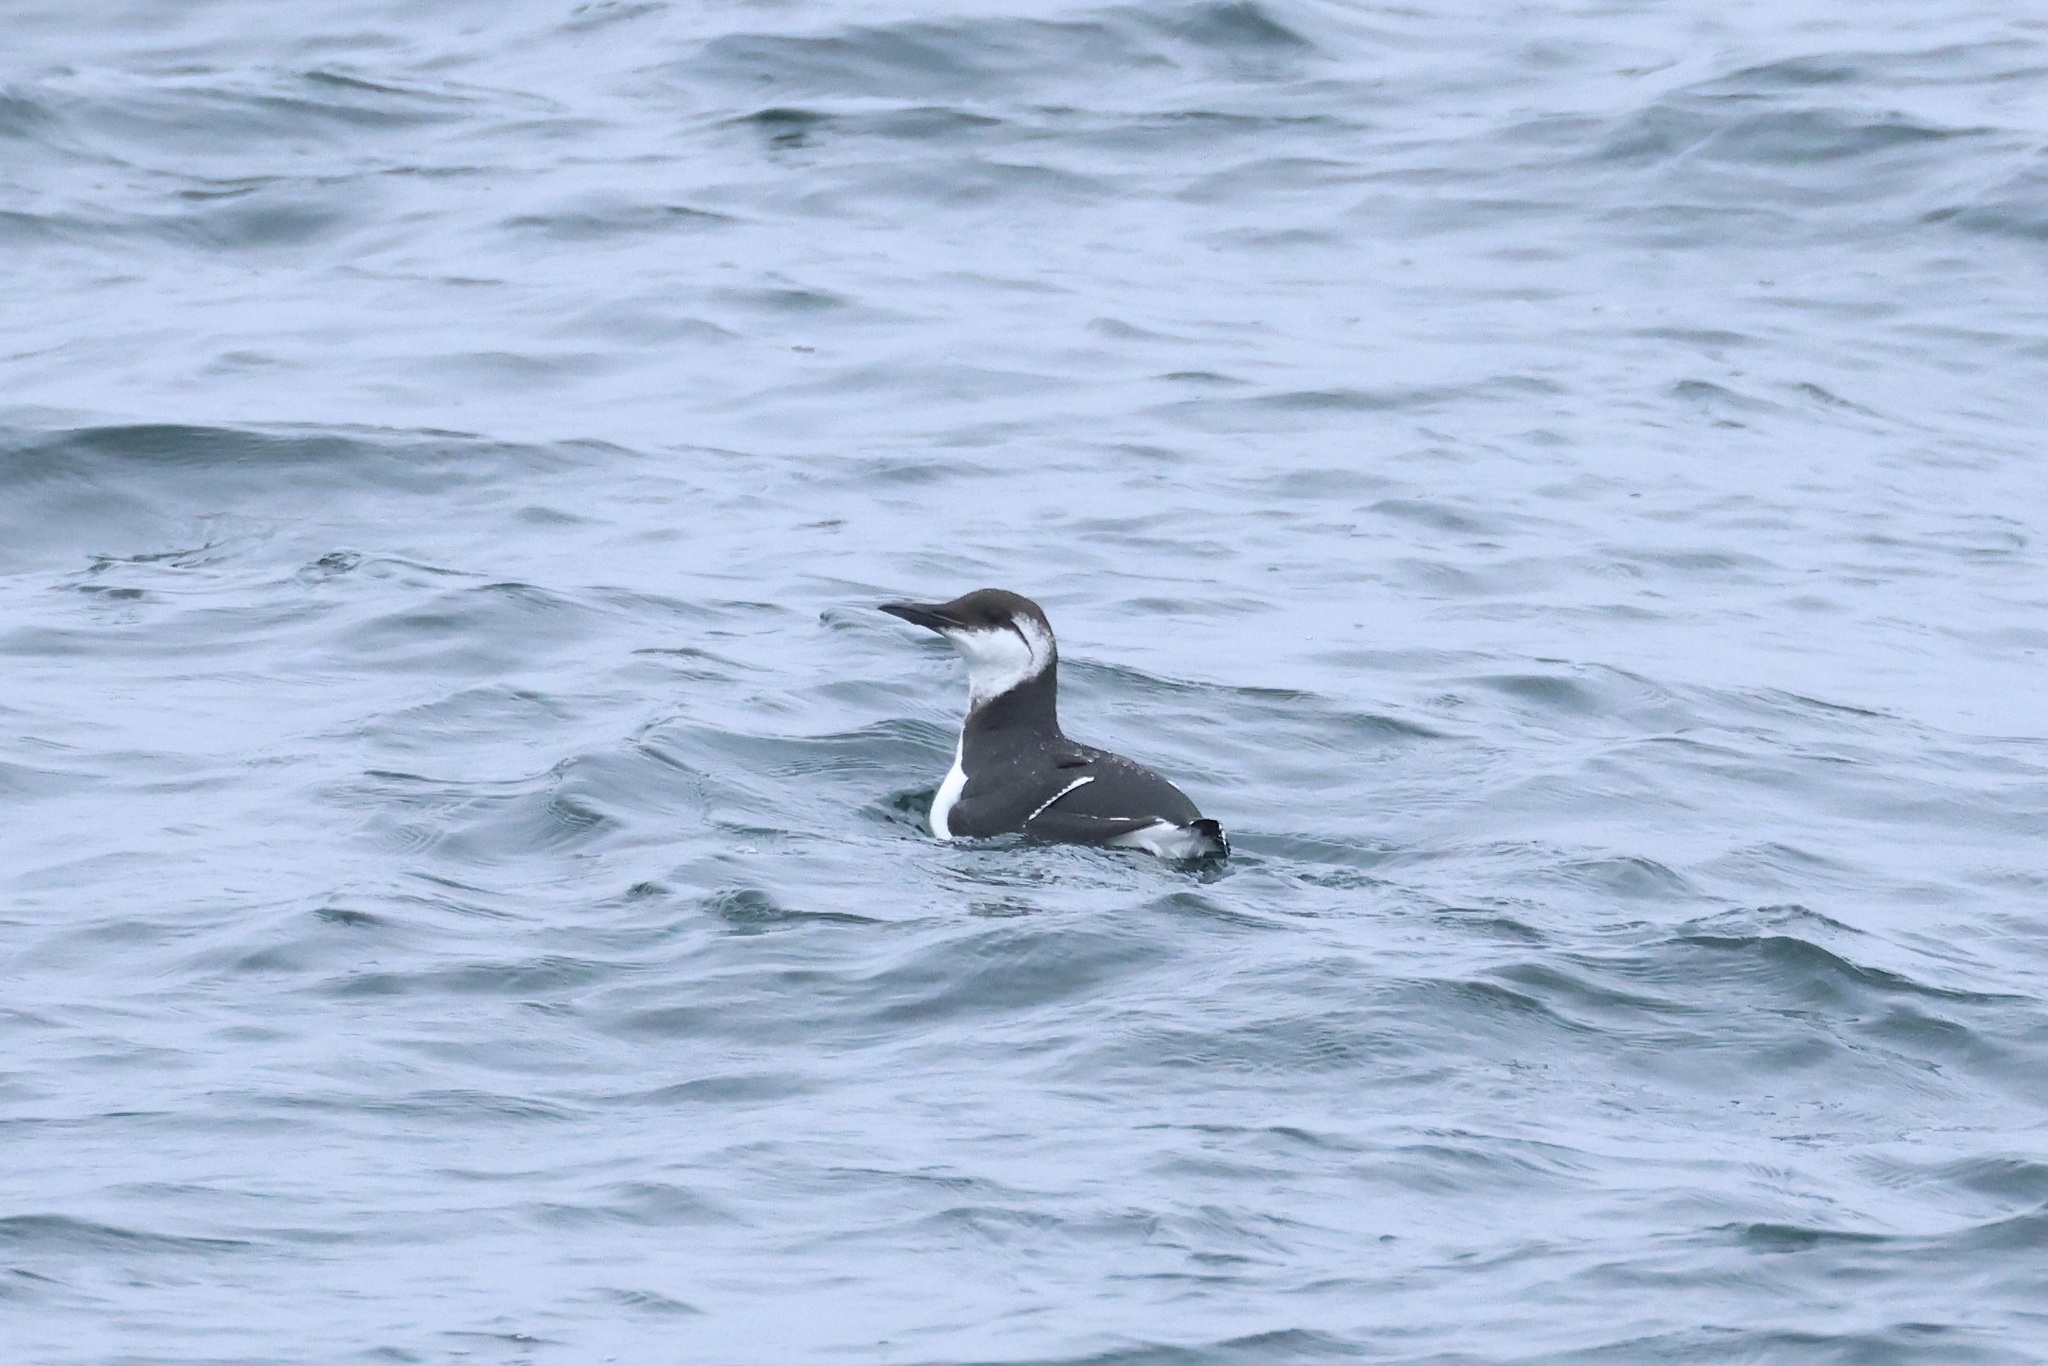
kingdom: Animalia
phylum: Chordata
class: Aves
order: Charadriiformes
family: Alcidae
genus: Uria
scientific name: Uria aalge
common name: Common murre
